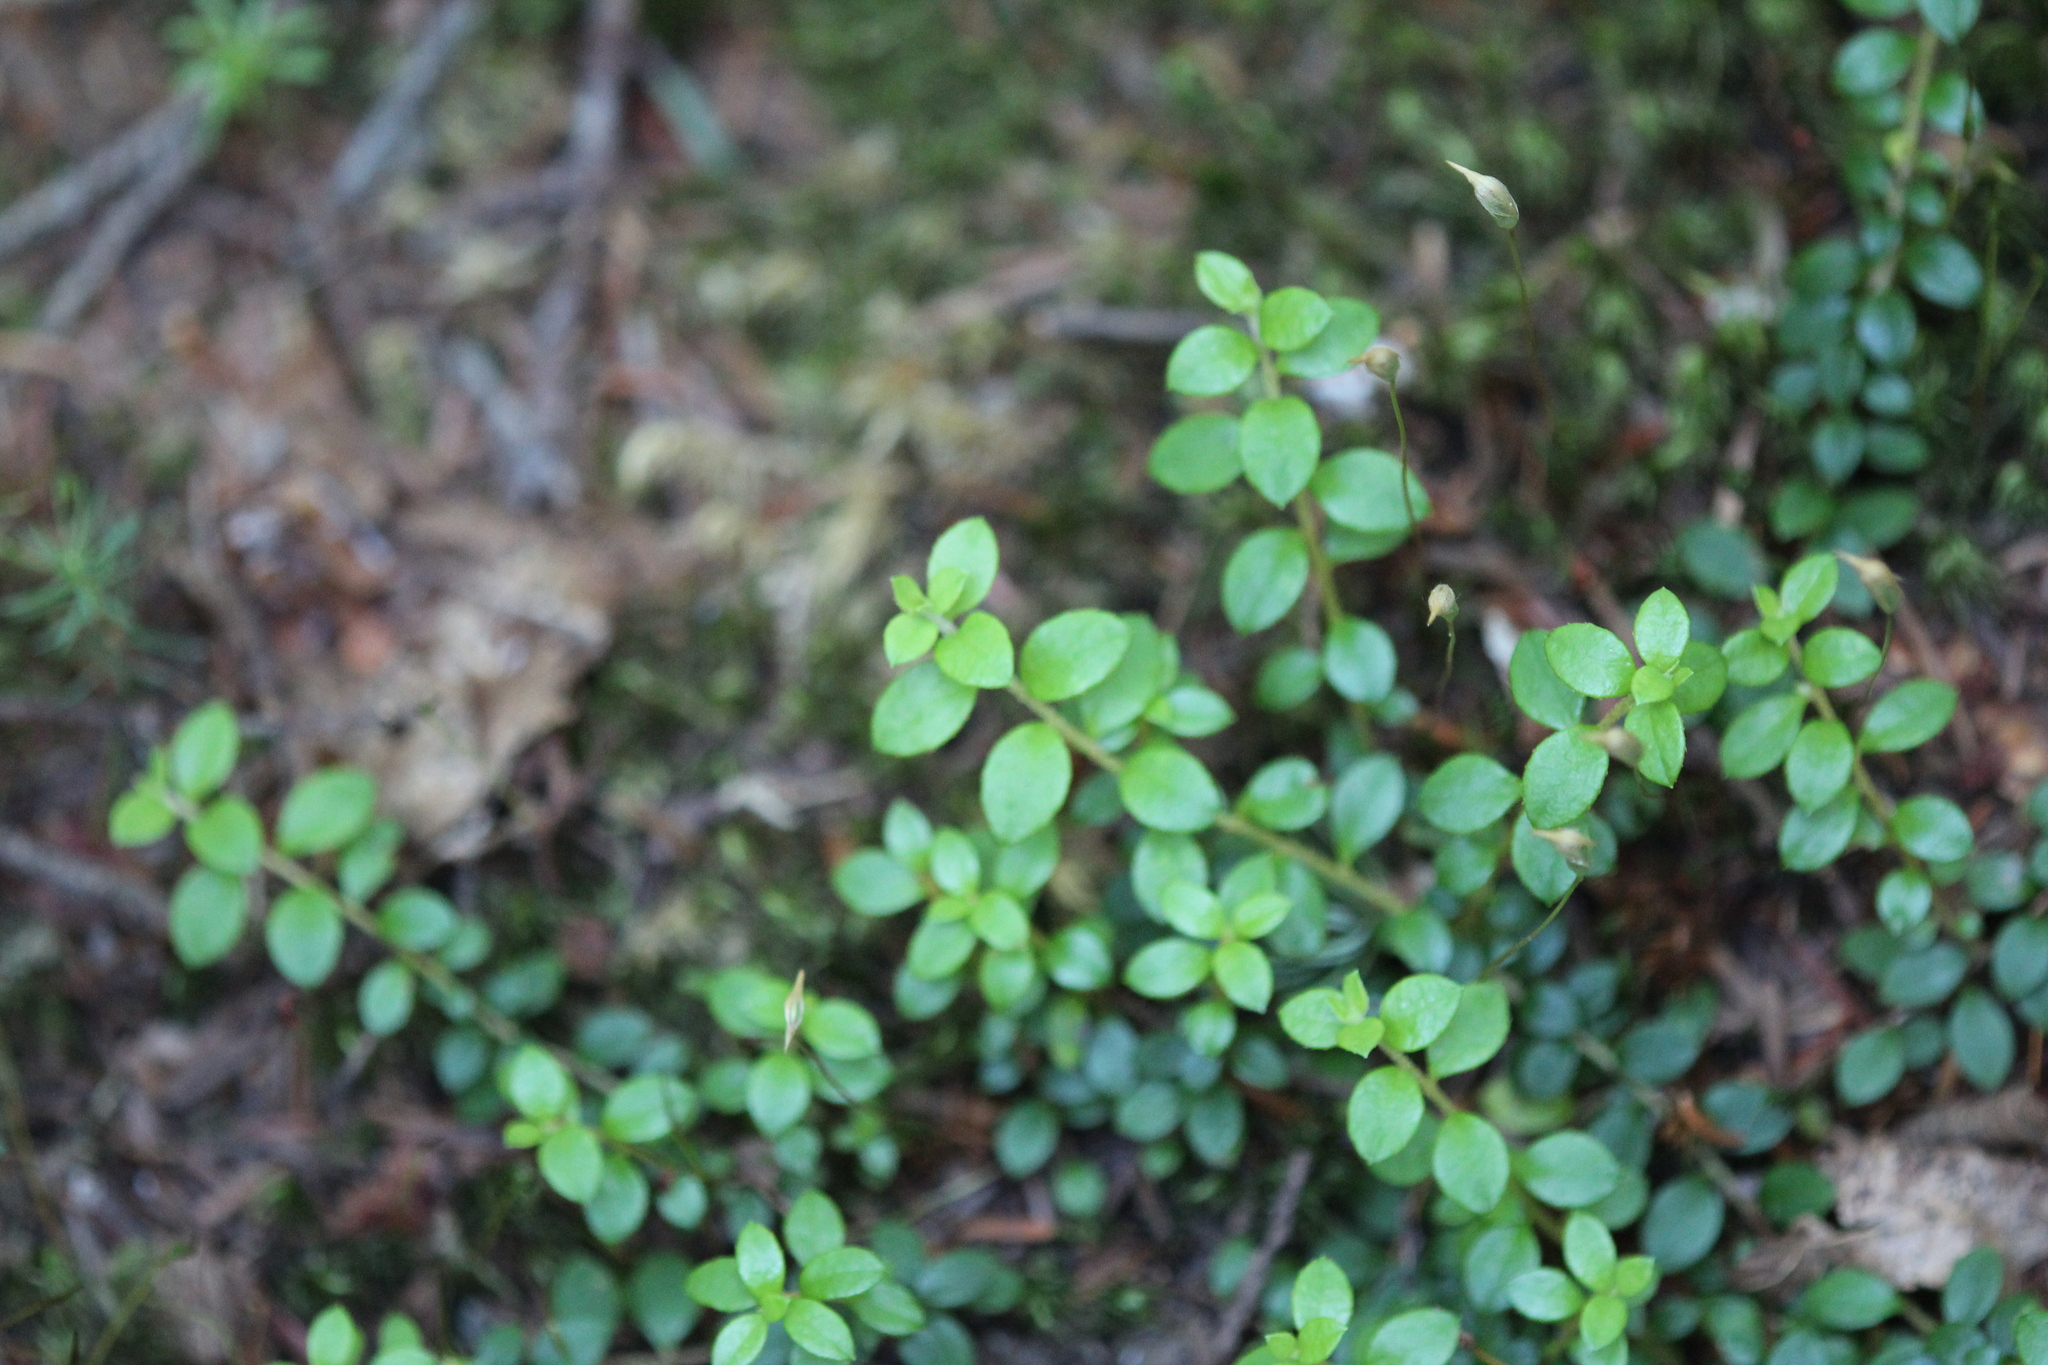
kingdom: Plantae
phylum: Tracheophyta
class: Magnoliopsida
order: Ericales
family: Ericaceae
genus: Gaultheria
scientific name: Gaultheria hispidula
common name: Cancer wintergreen
